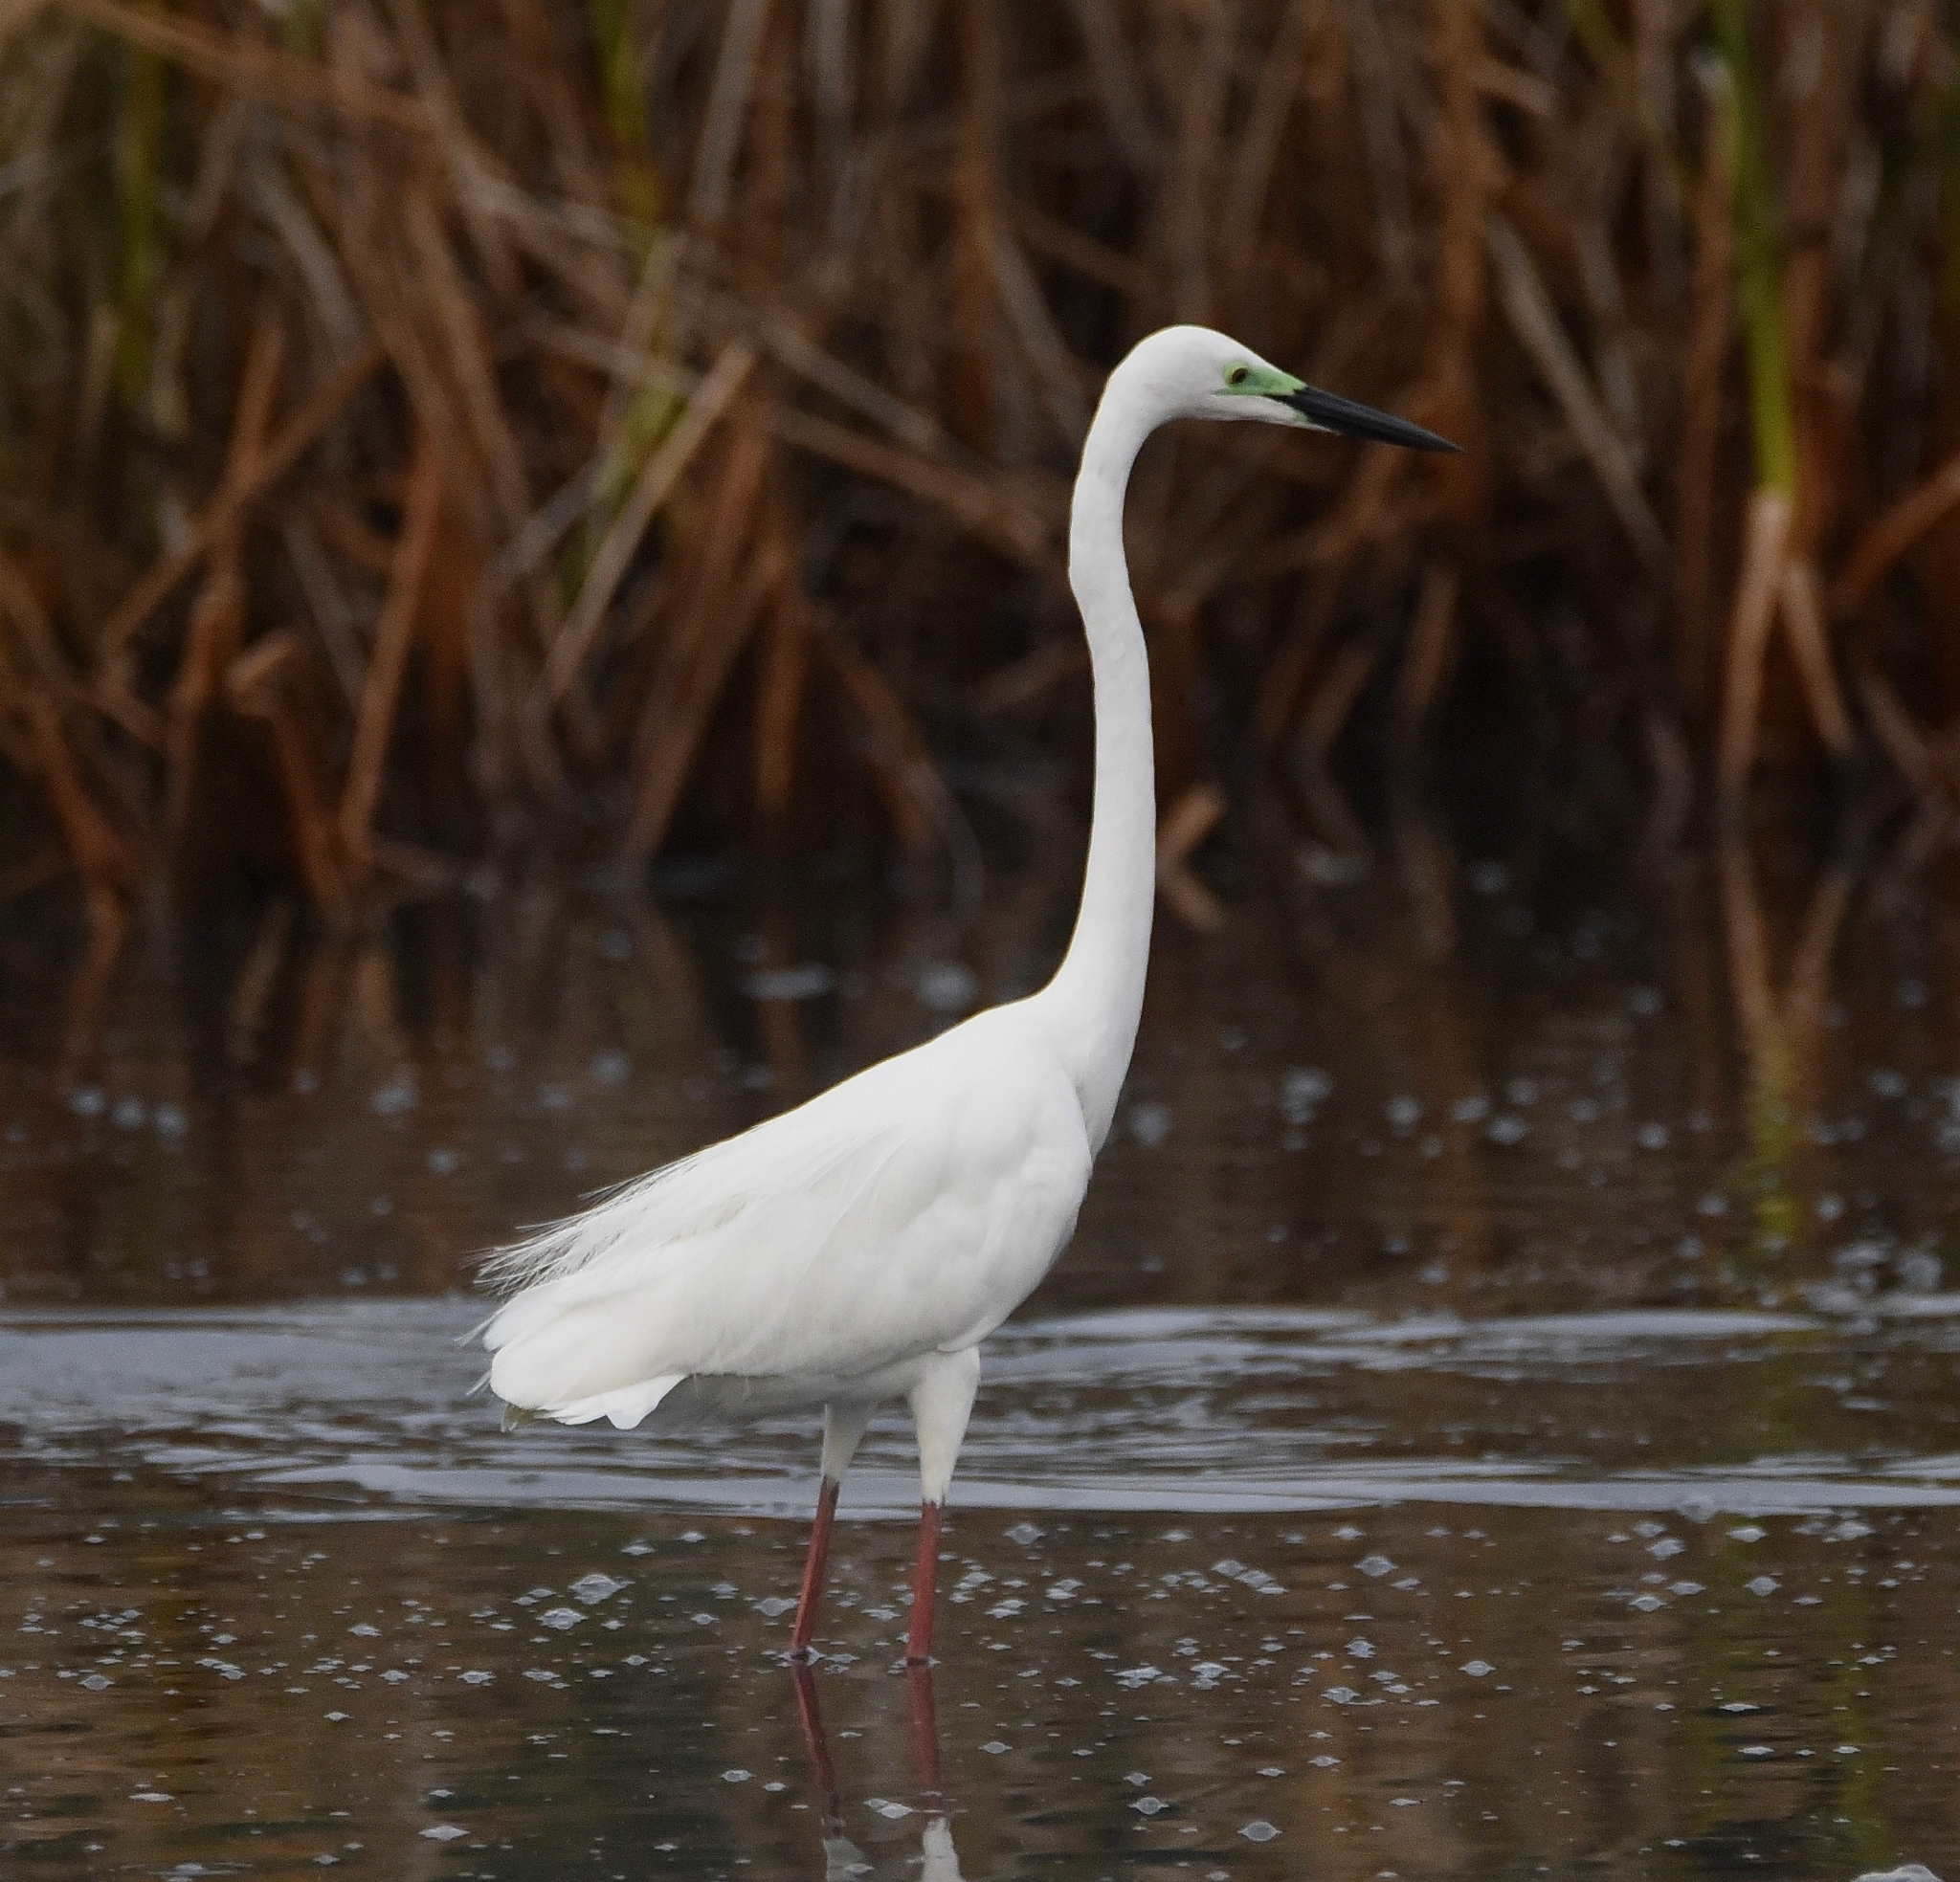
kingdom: Animalia
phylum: Chordata
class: Aves
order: Pelecaniformes
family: Ardeidae
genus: Ardea
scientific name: Ardea alba
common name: Great egret
